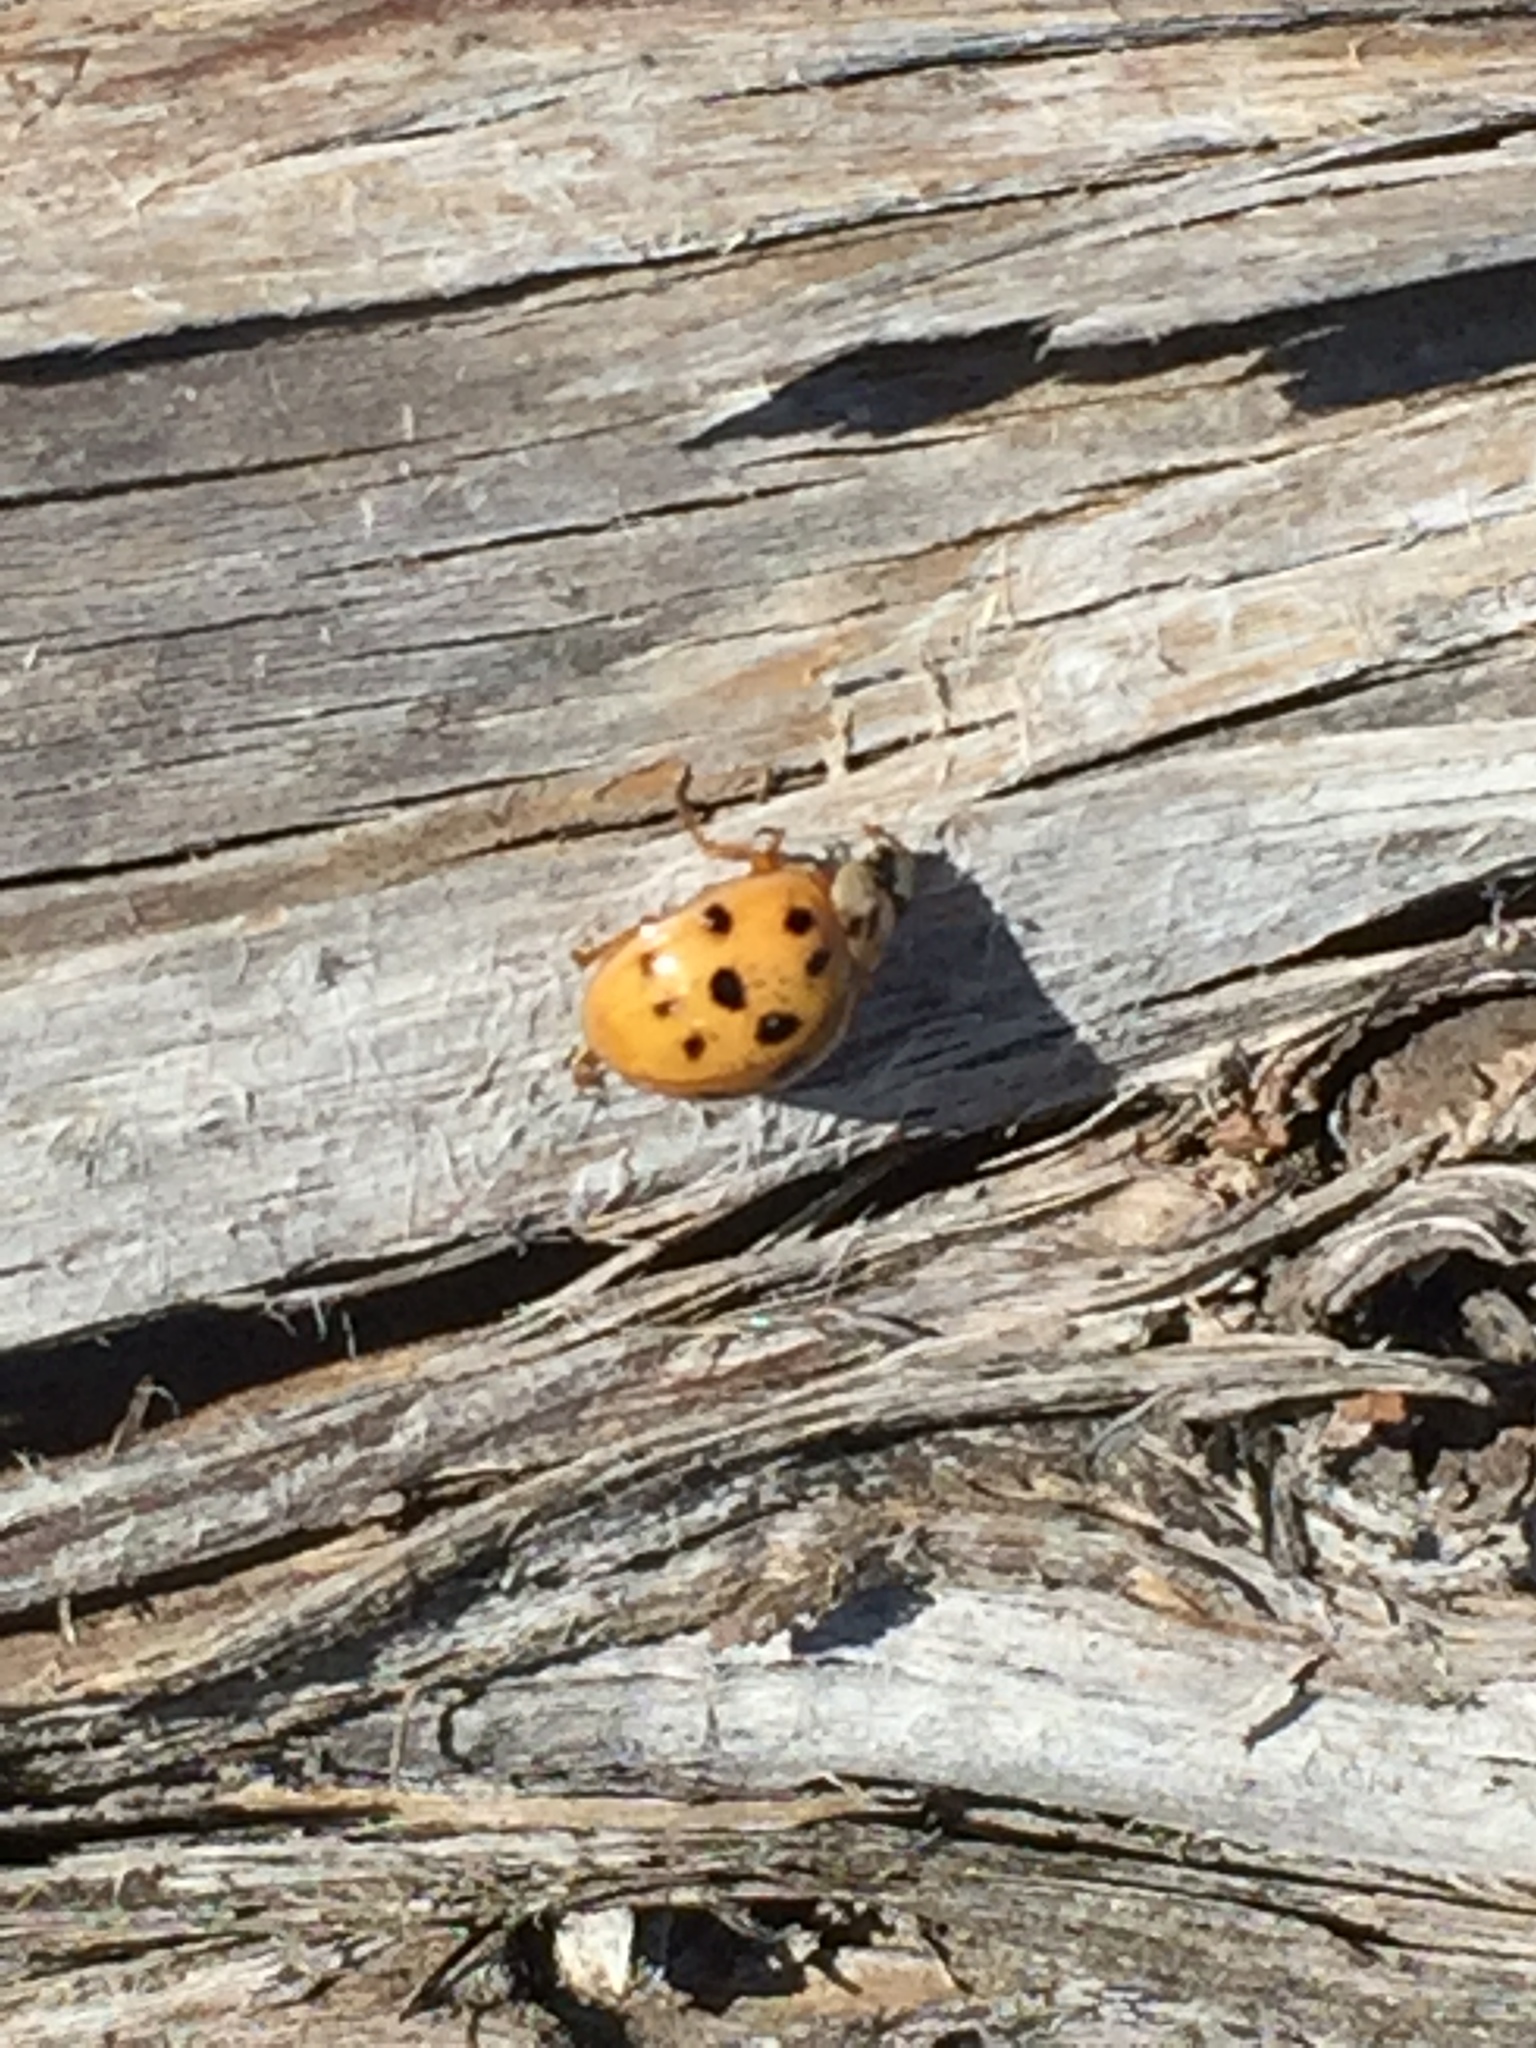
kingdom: Animalia
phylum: Arthropoda
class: Insecta
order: Coleoptera
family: Coccinellidae
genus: Harmonia
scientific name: Harmonia axyridis
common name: Harlequin ladybird
